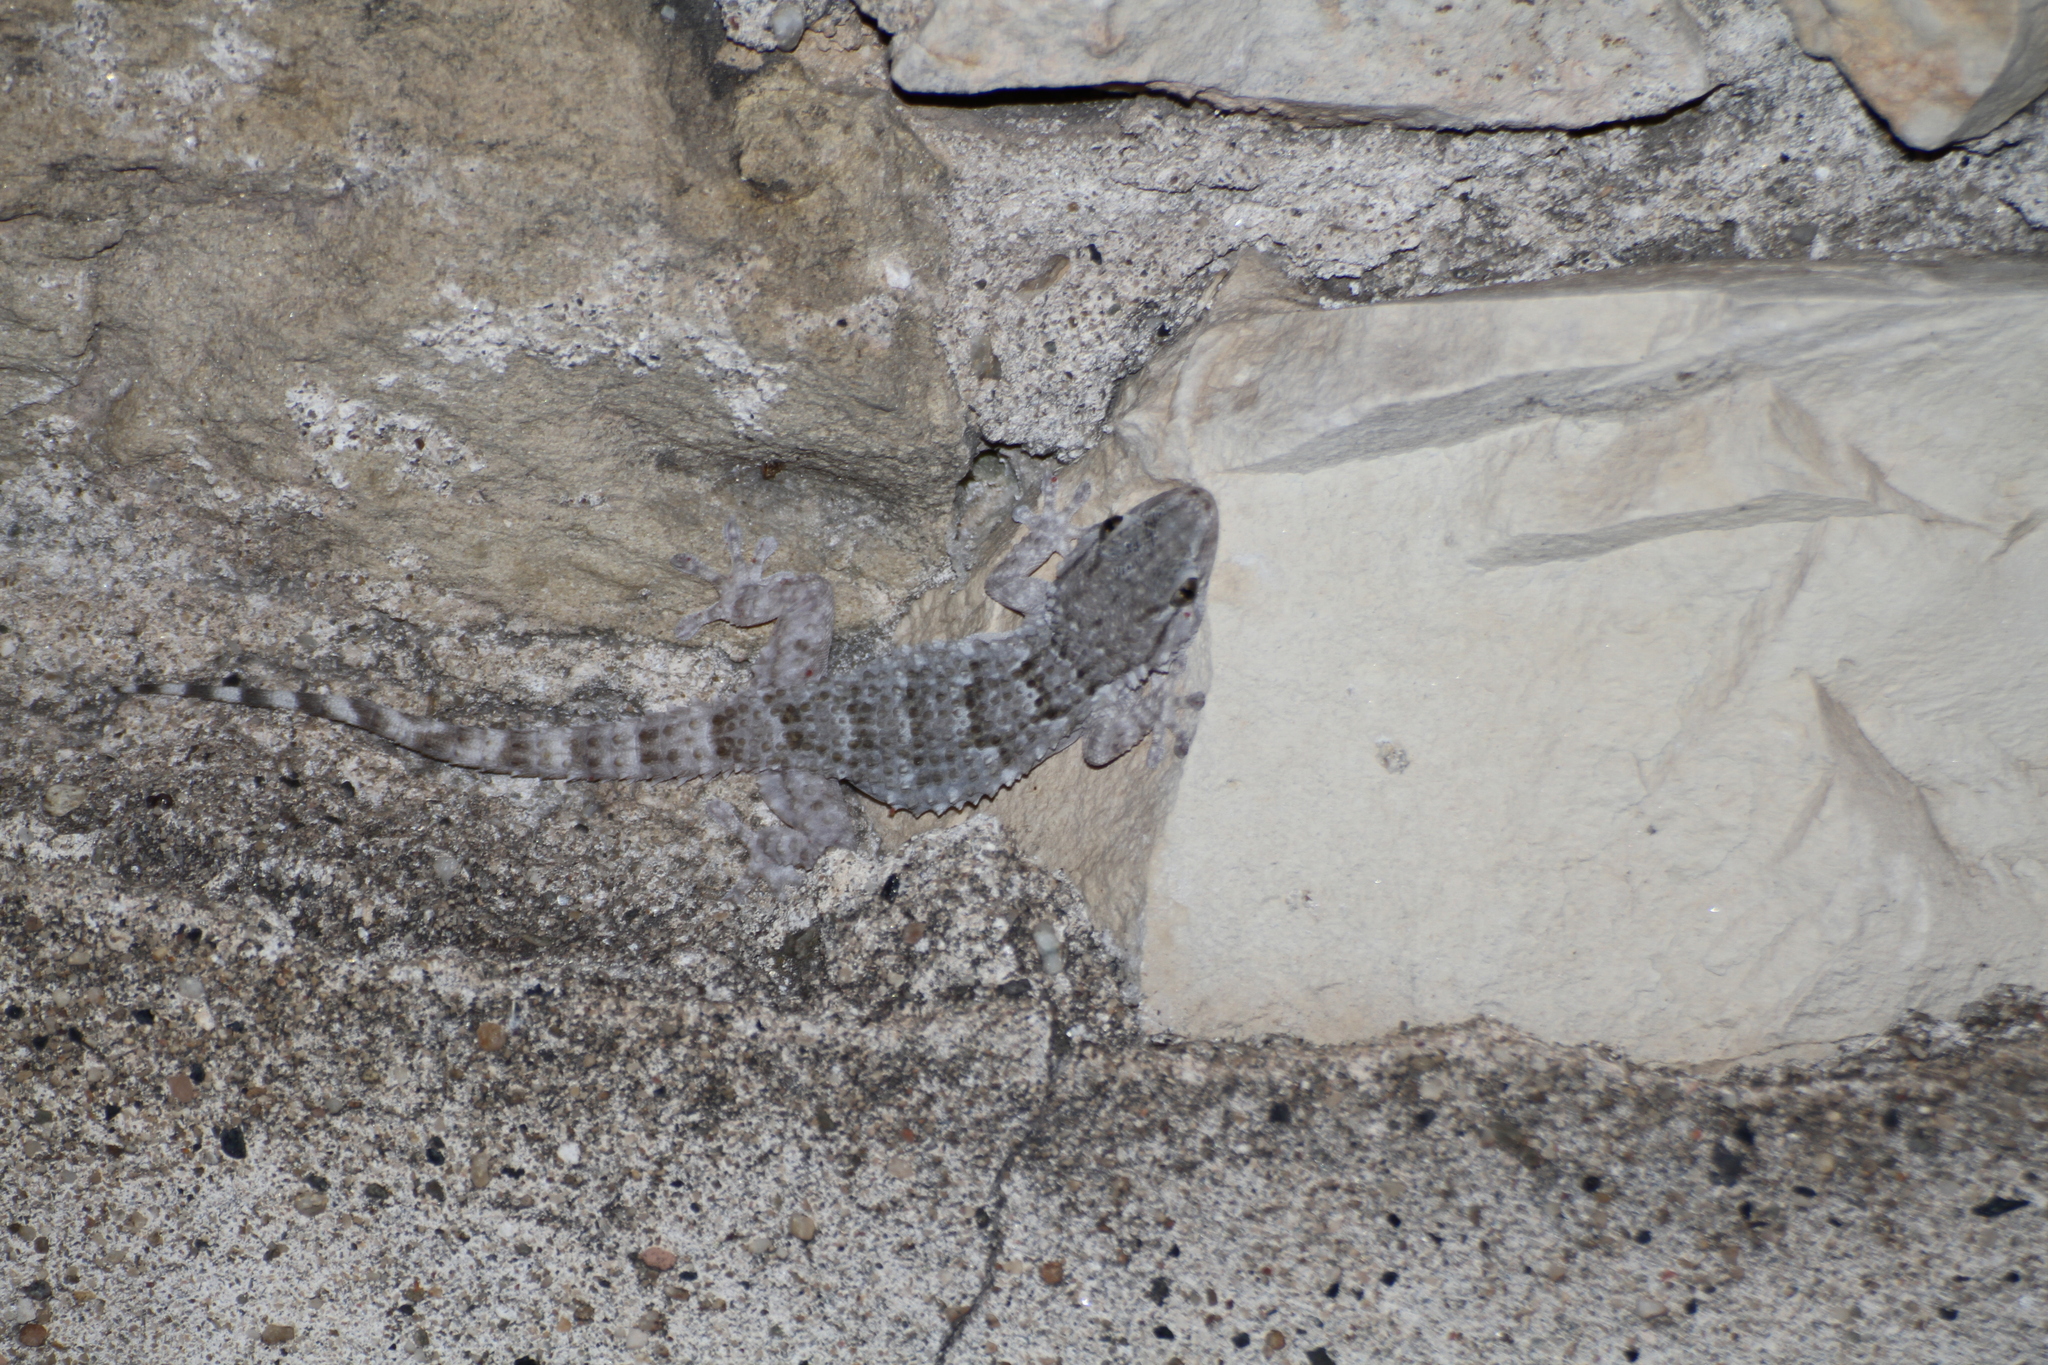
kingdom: Animalia
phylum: Chordata
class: Squamata
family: Phyllodactylidae
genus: Tarentola
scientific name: Tarentola mauritanica
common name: Moorish gecko
